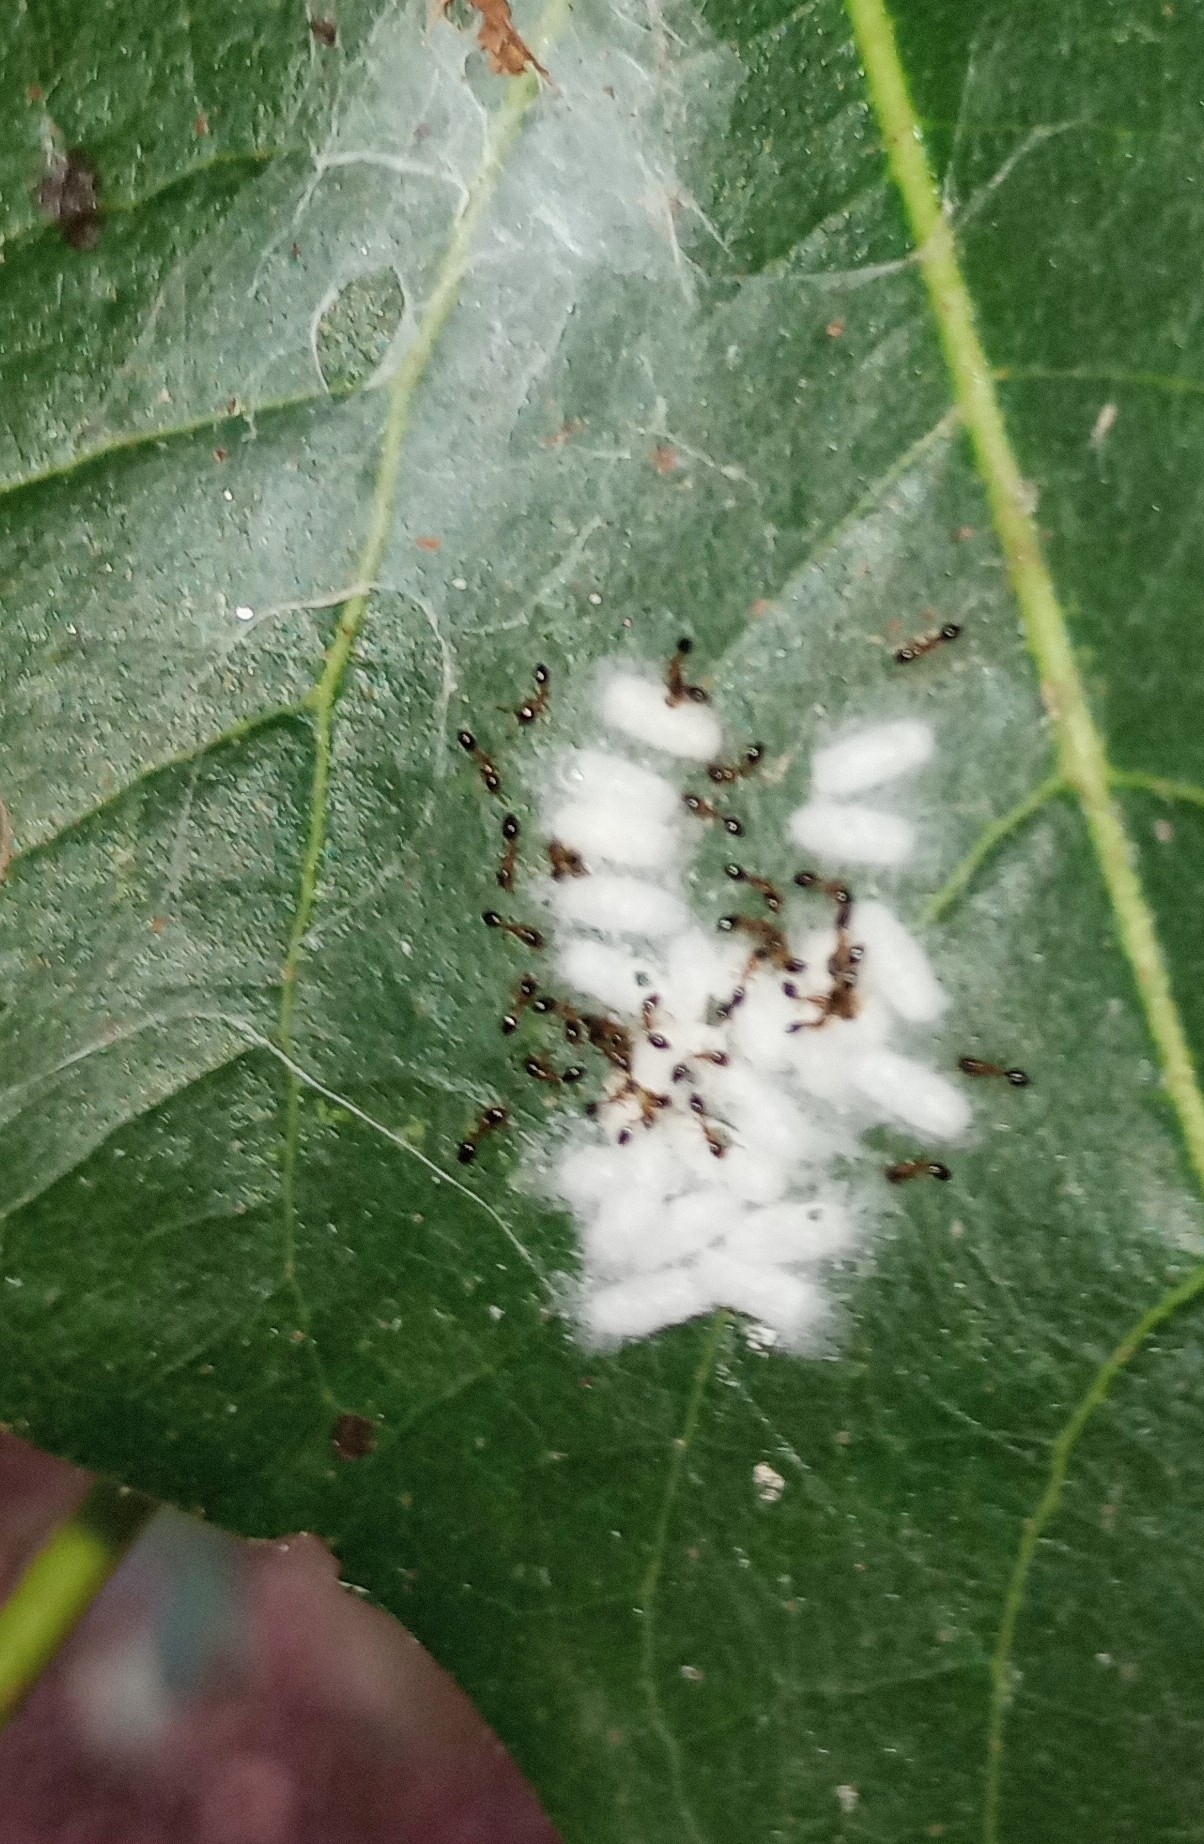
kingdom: Animalia
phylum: Arthropoda
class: Insecta
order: Hymenoptera
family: Formicidae
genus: Monomorium
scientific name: Monomorium floricola
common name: Bicolored trailing ant
